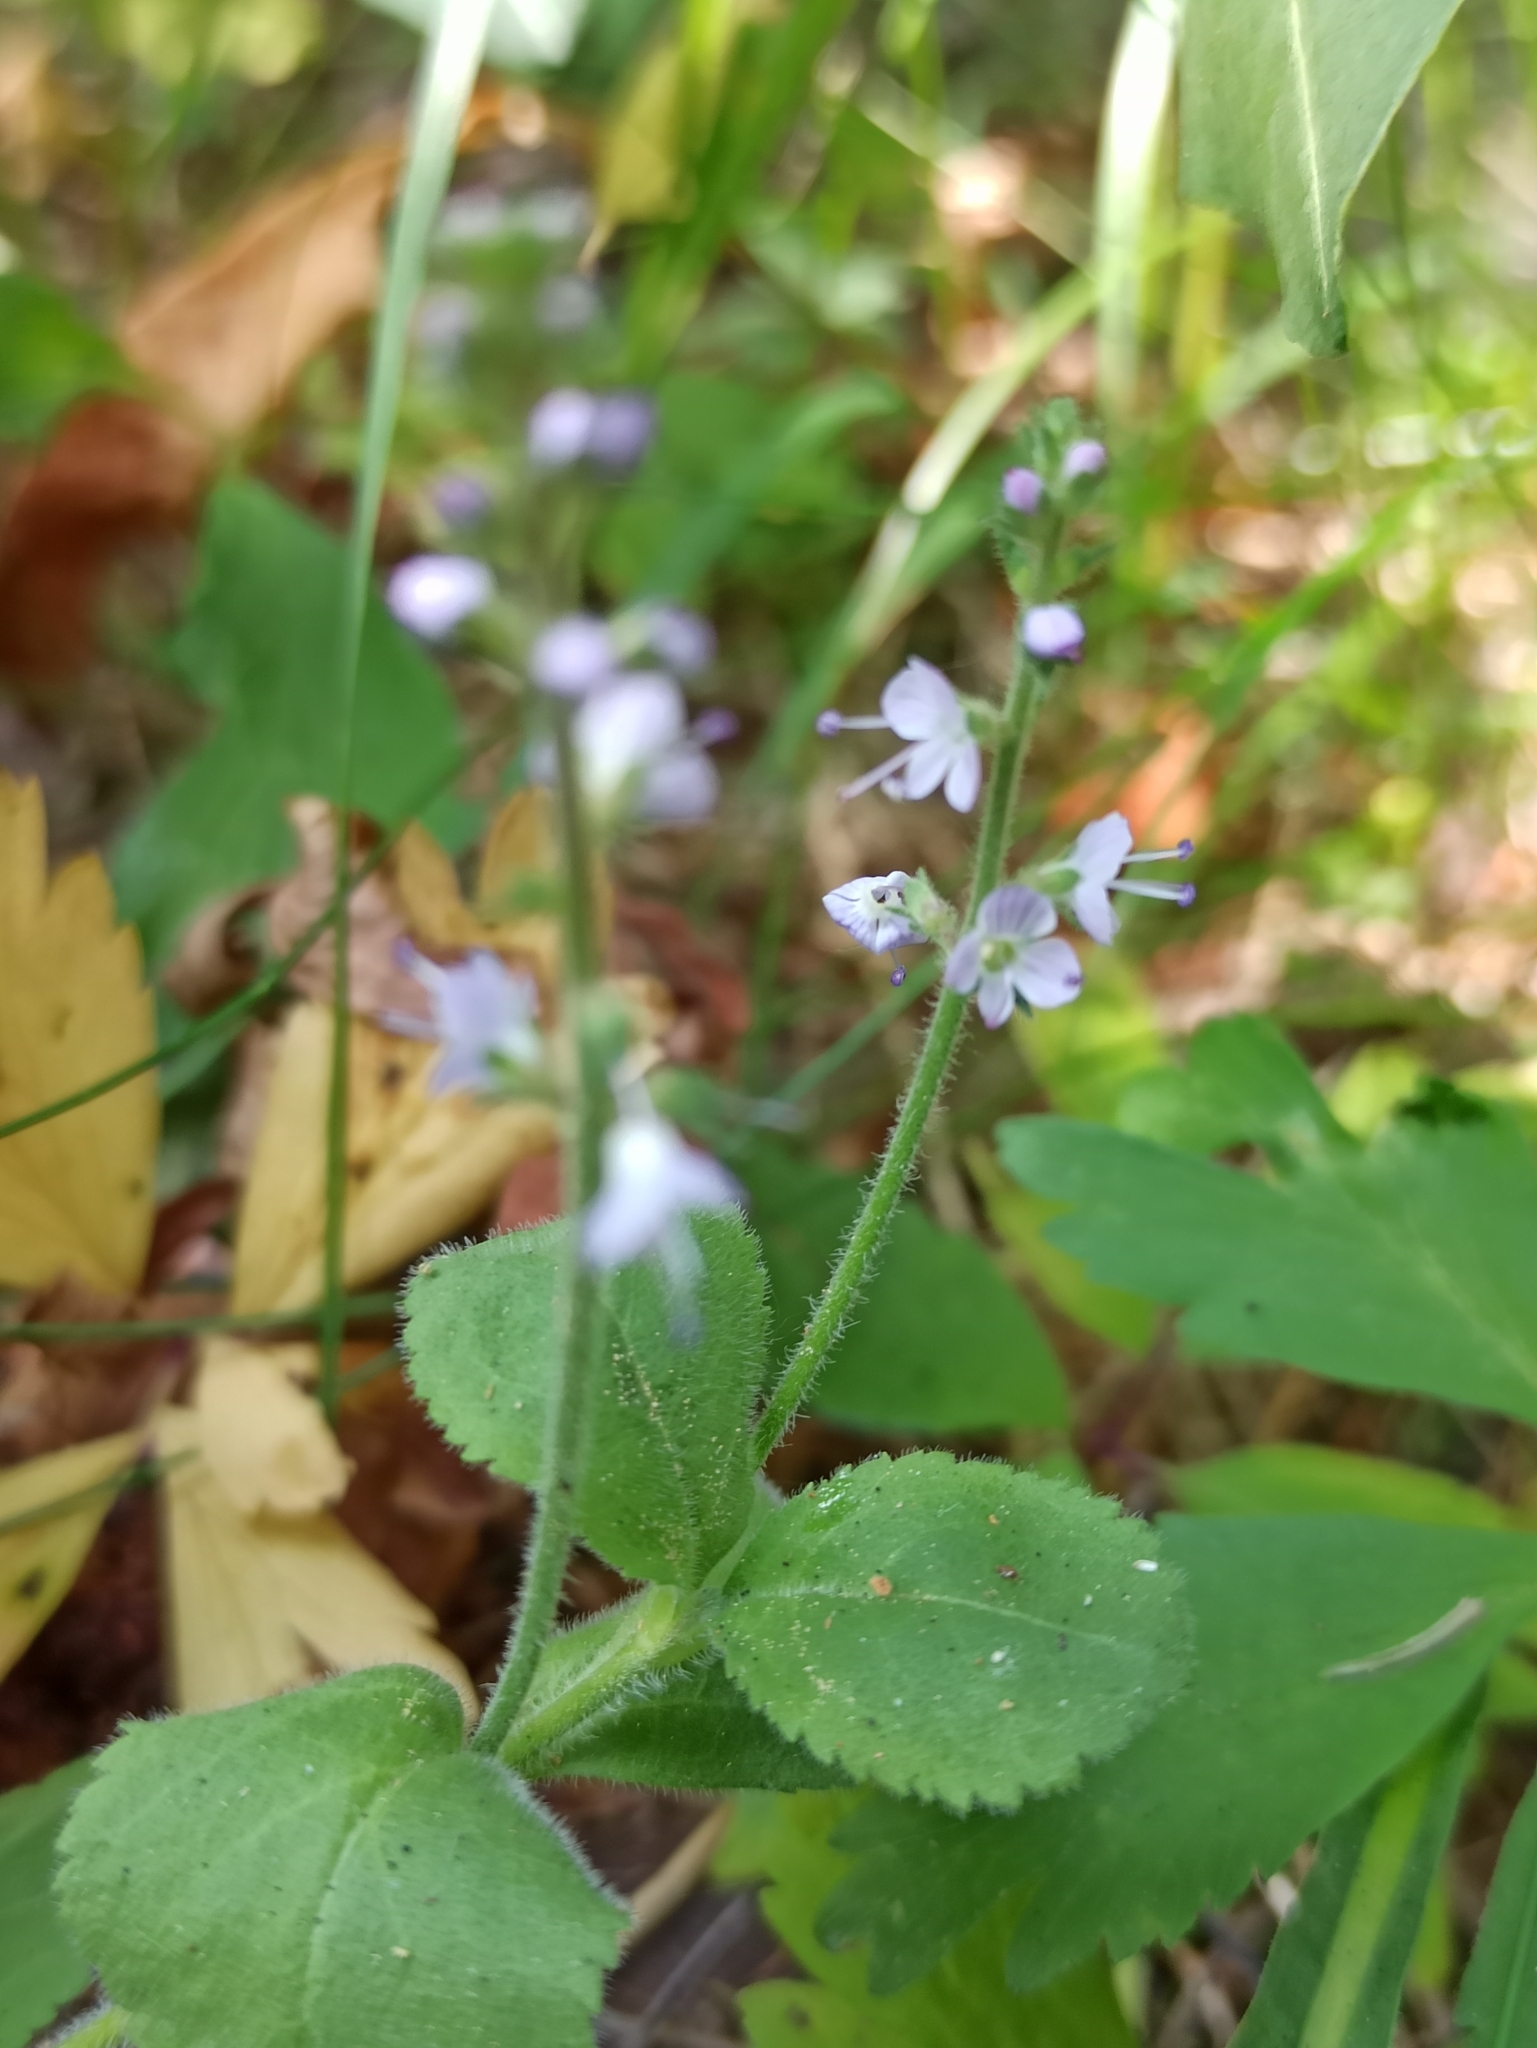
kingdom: Plantae
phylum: Tracheophyta
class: Magnoliopsida
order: Lamiales
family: Plantaginaceae
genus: Veronica
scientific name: Veronica officinalis
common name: Common speedwell
